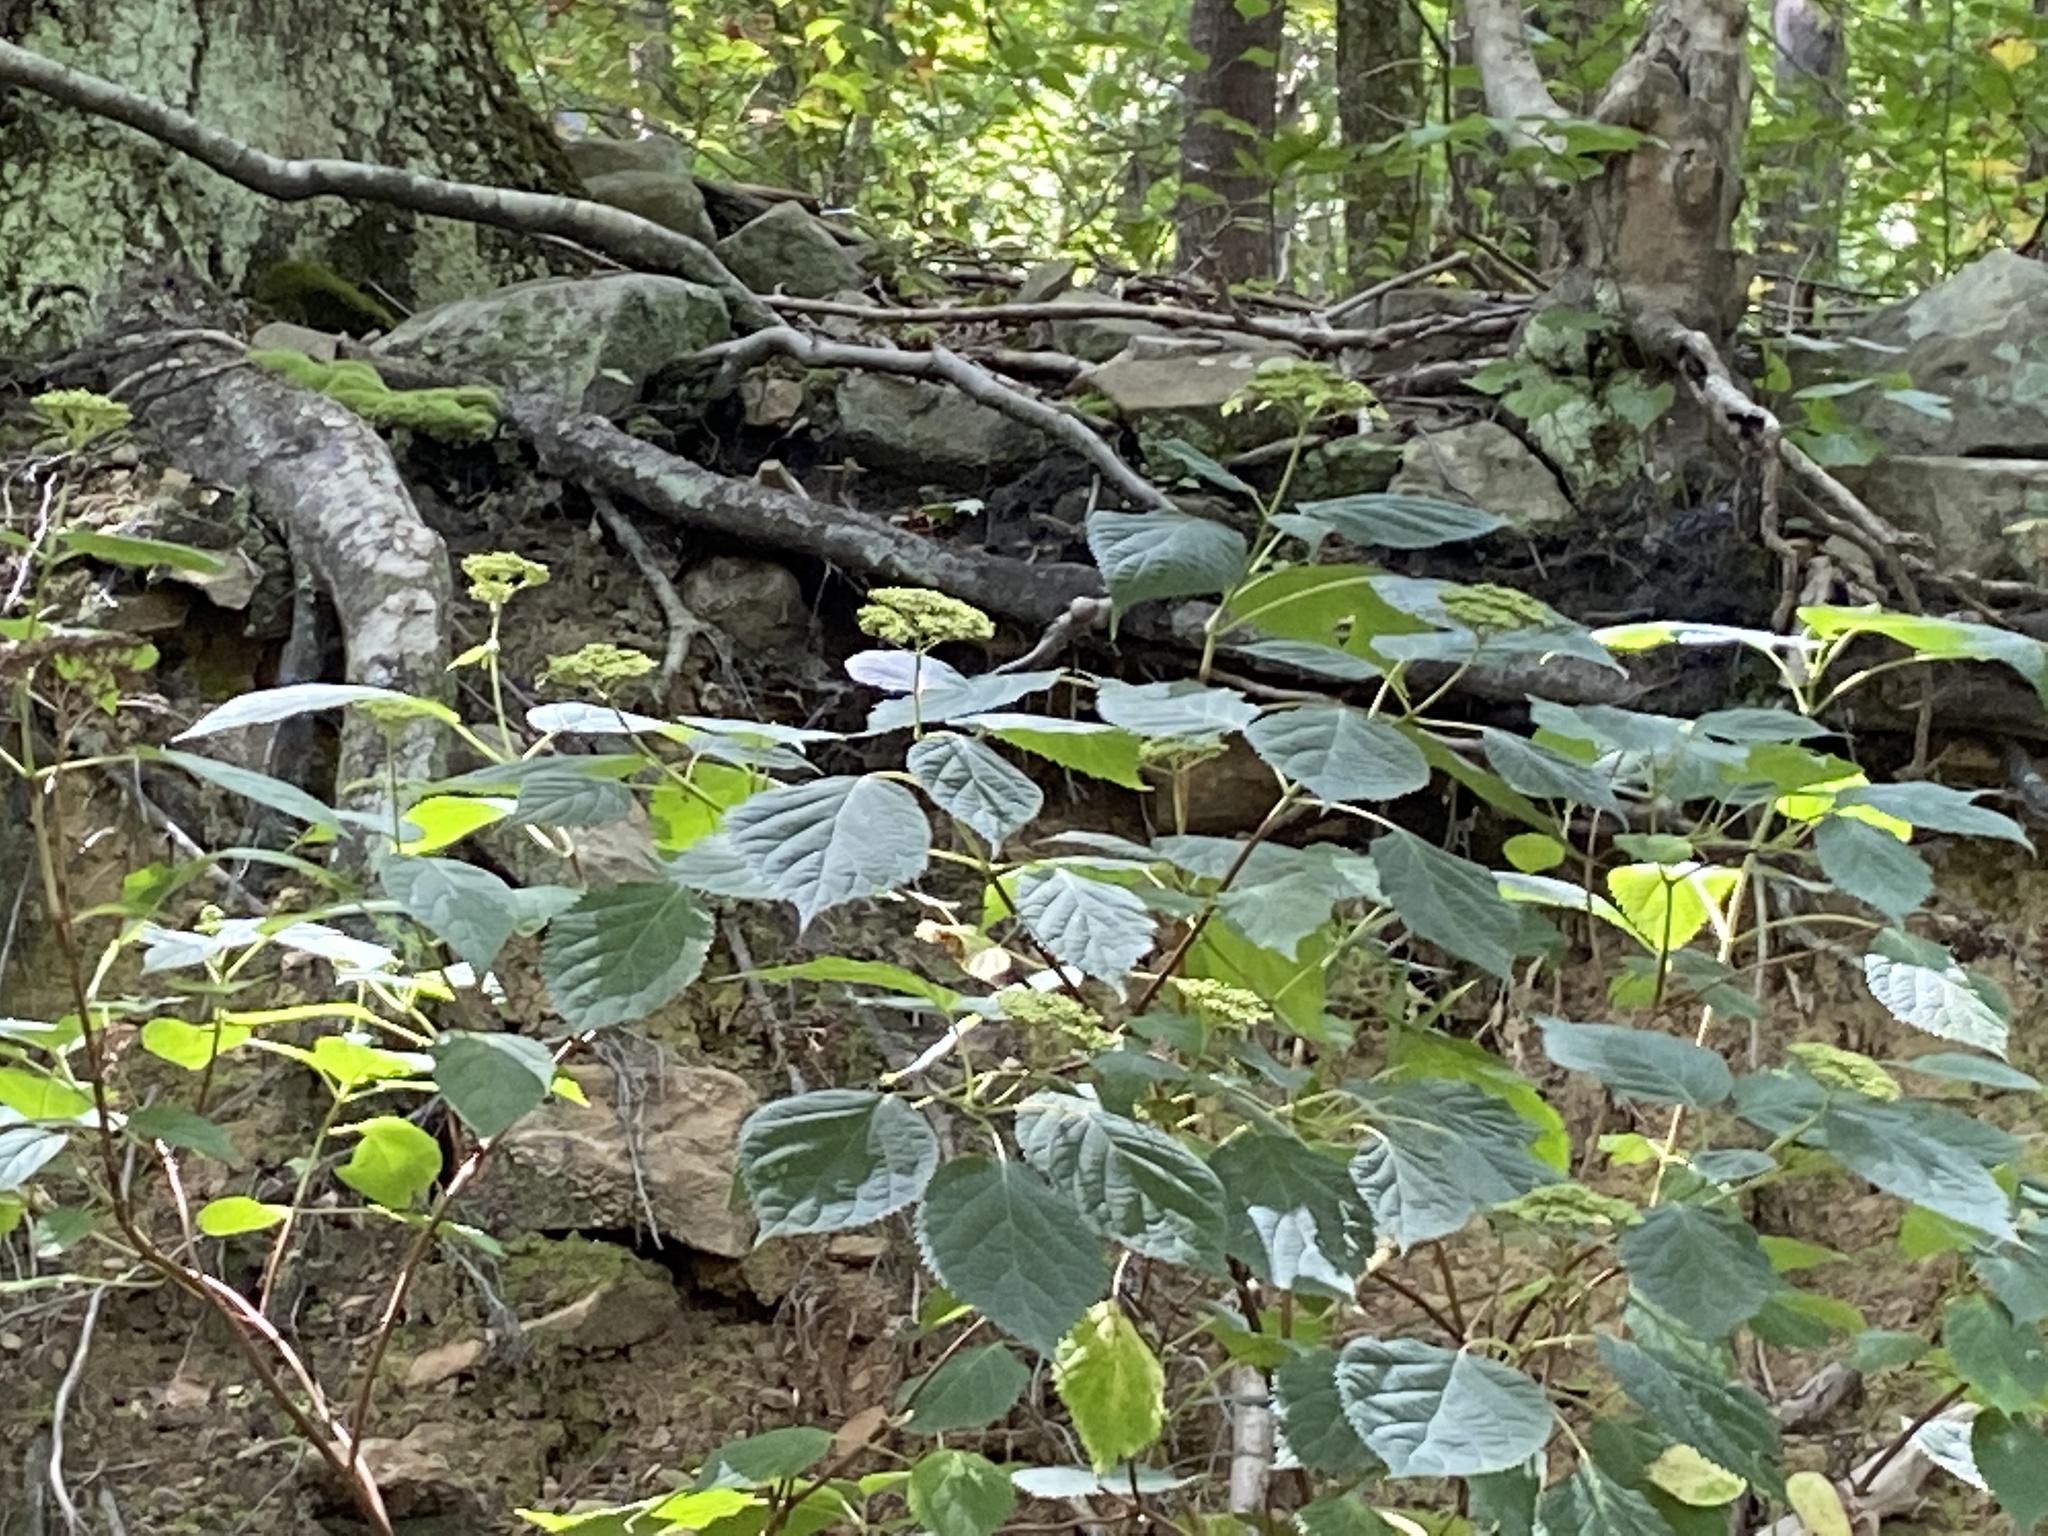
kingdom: Plantae
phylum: Tracheophyta
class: Magnoliopsida
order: Cornales
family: Hydrangeaceae
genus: Hydrangea
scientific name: Hydrangea arborescens
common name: Sevenbark
